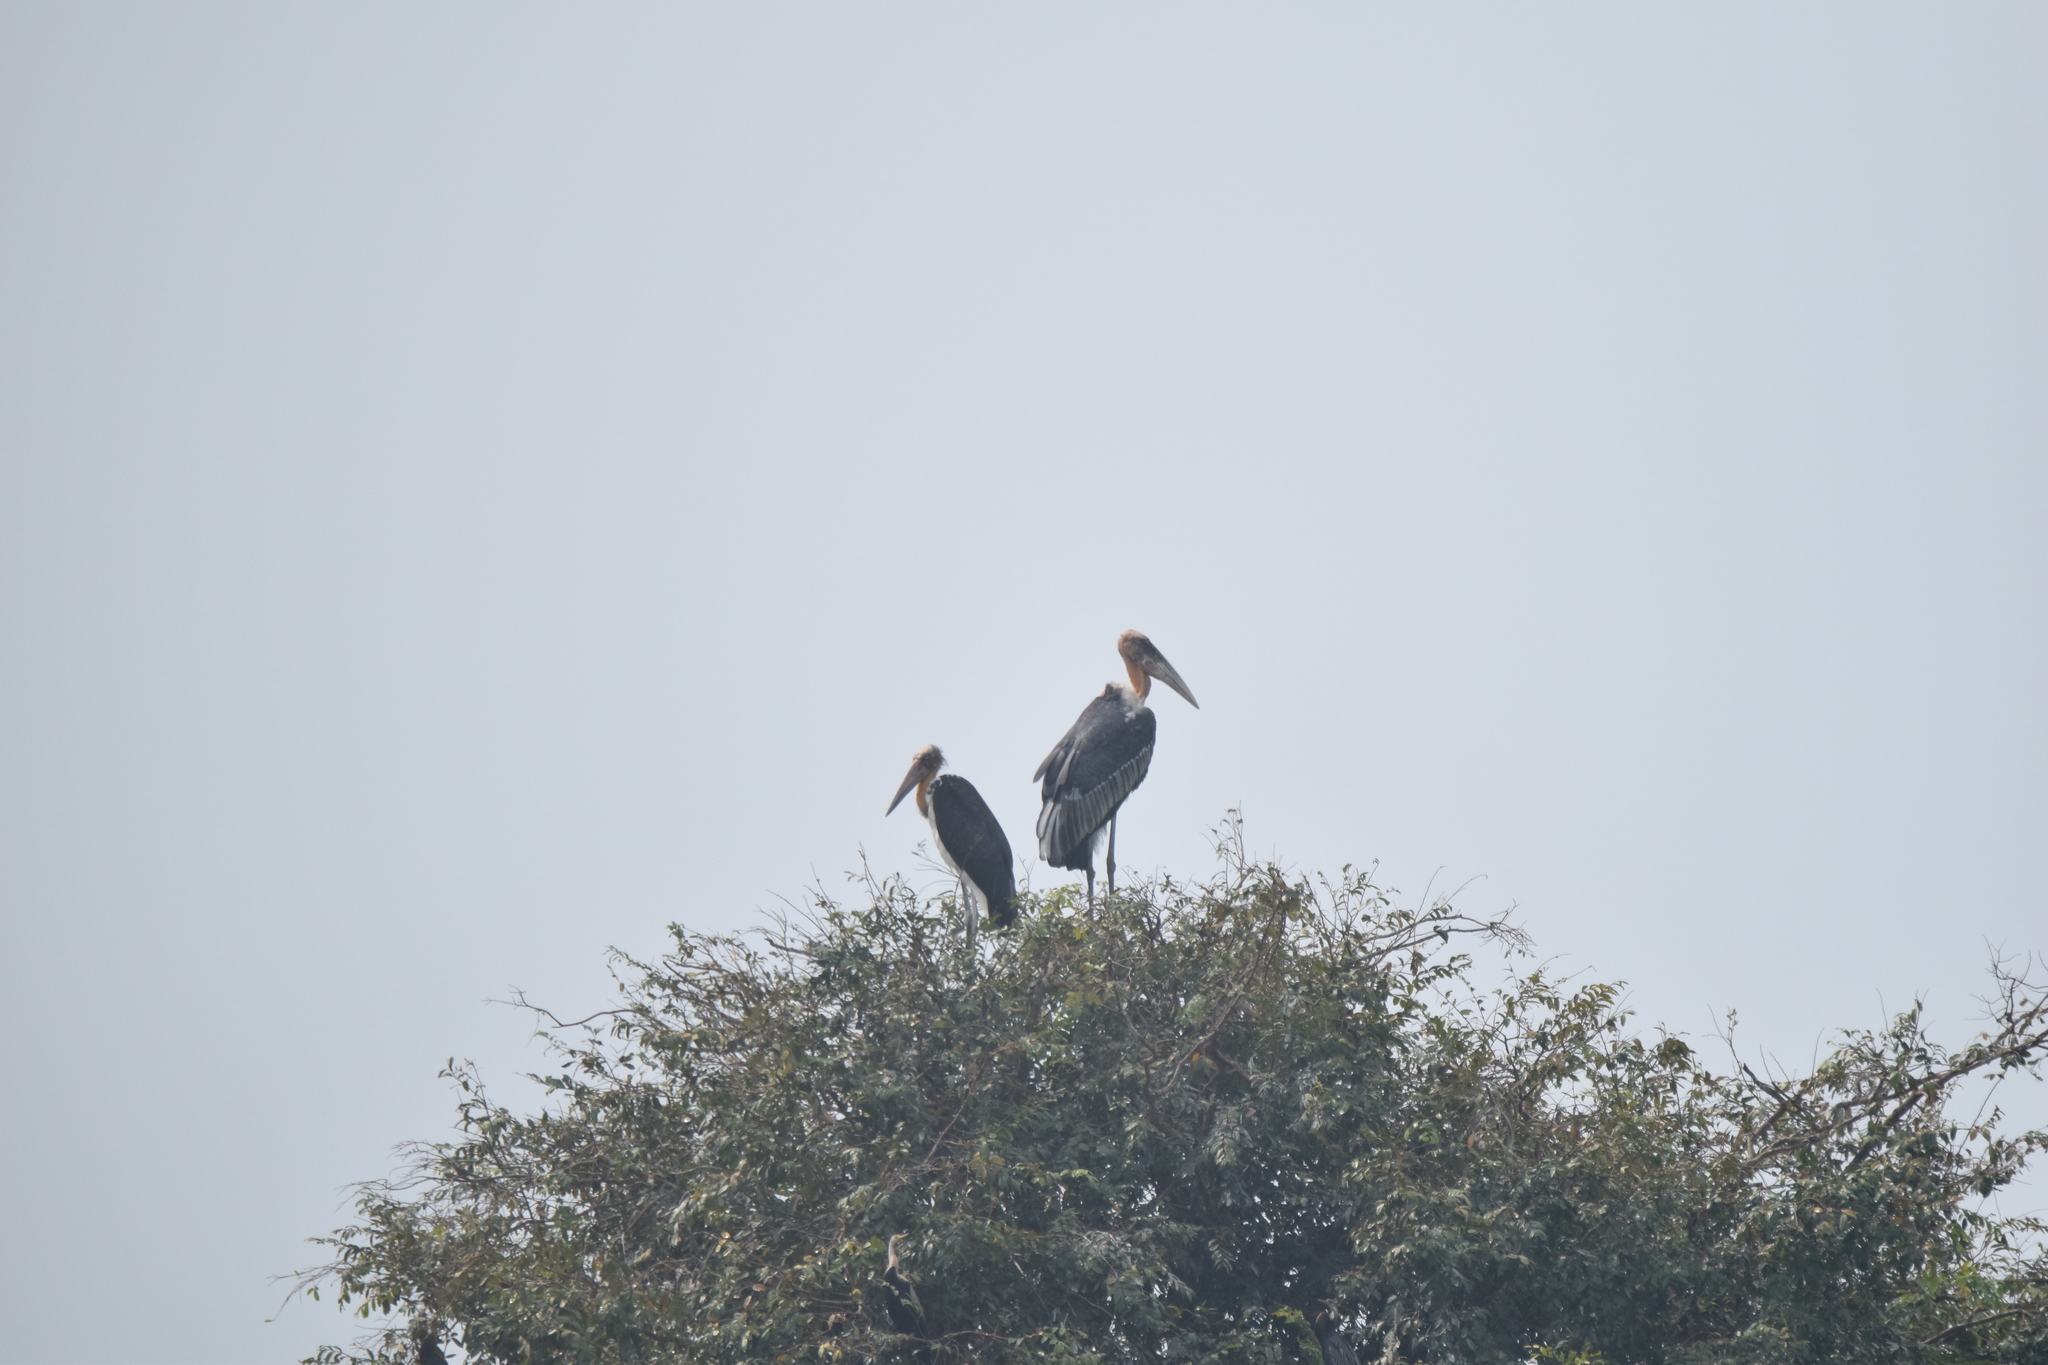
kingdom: Animalia
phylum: Chordata
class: Aves
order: Ciconiiformes
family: Ciconiidae
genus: Leptoptilos
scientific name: Leptoptilos dubius
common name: Greater adjutant
